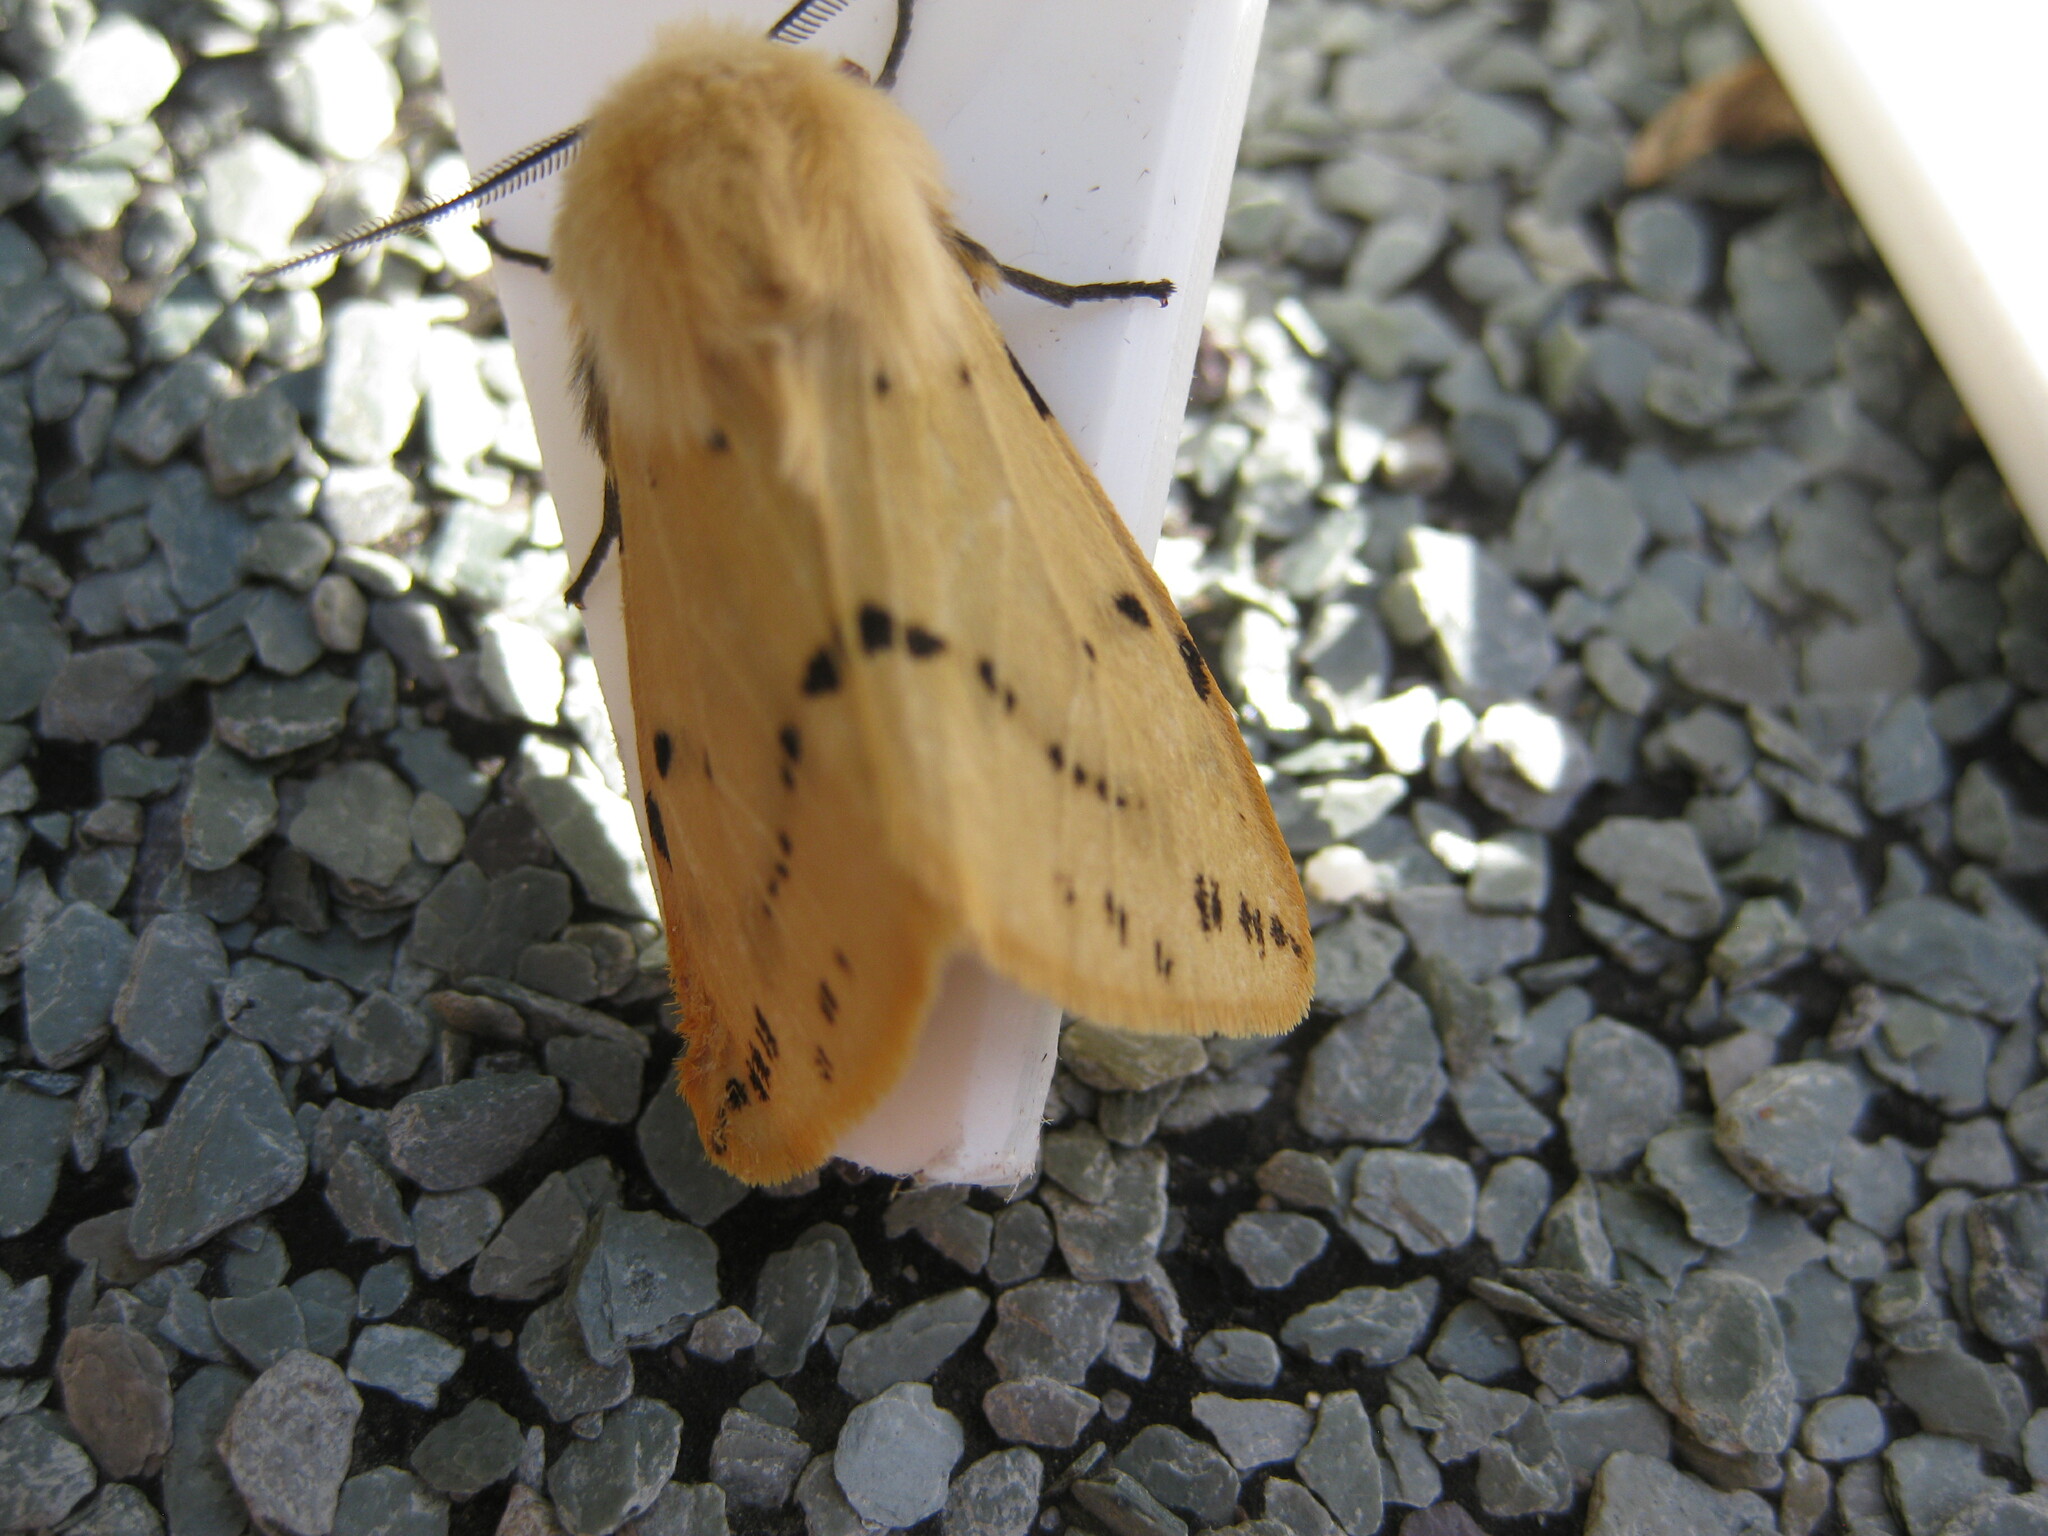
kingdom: Animalia
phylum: Arthropoda
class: Insecta
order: Lepidoptera
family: Erebidae
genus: Spilarctia
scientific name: Spilarctia lutea
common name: Buff ermine
